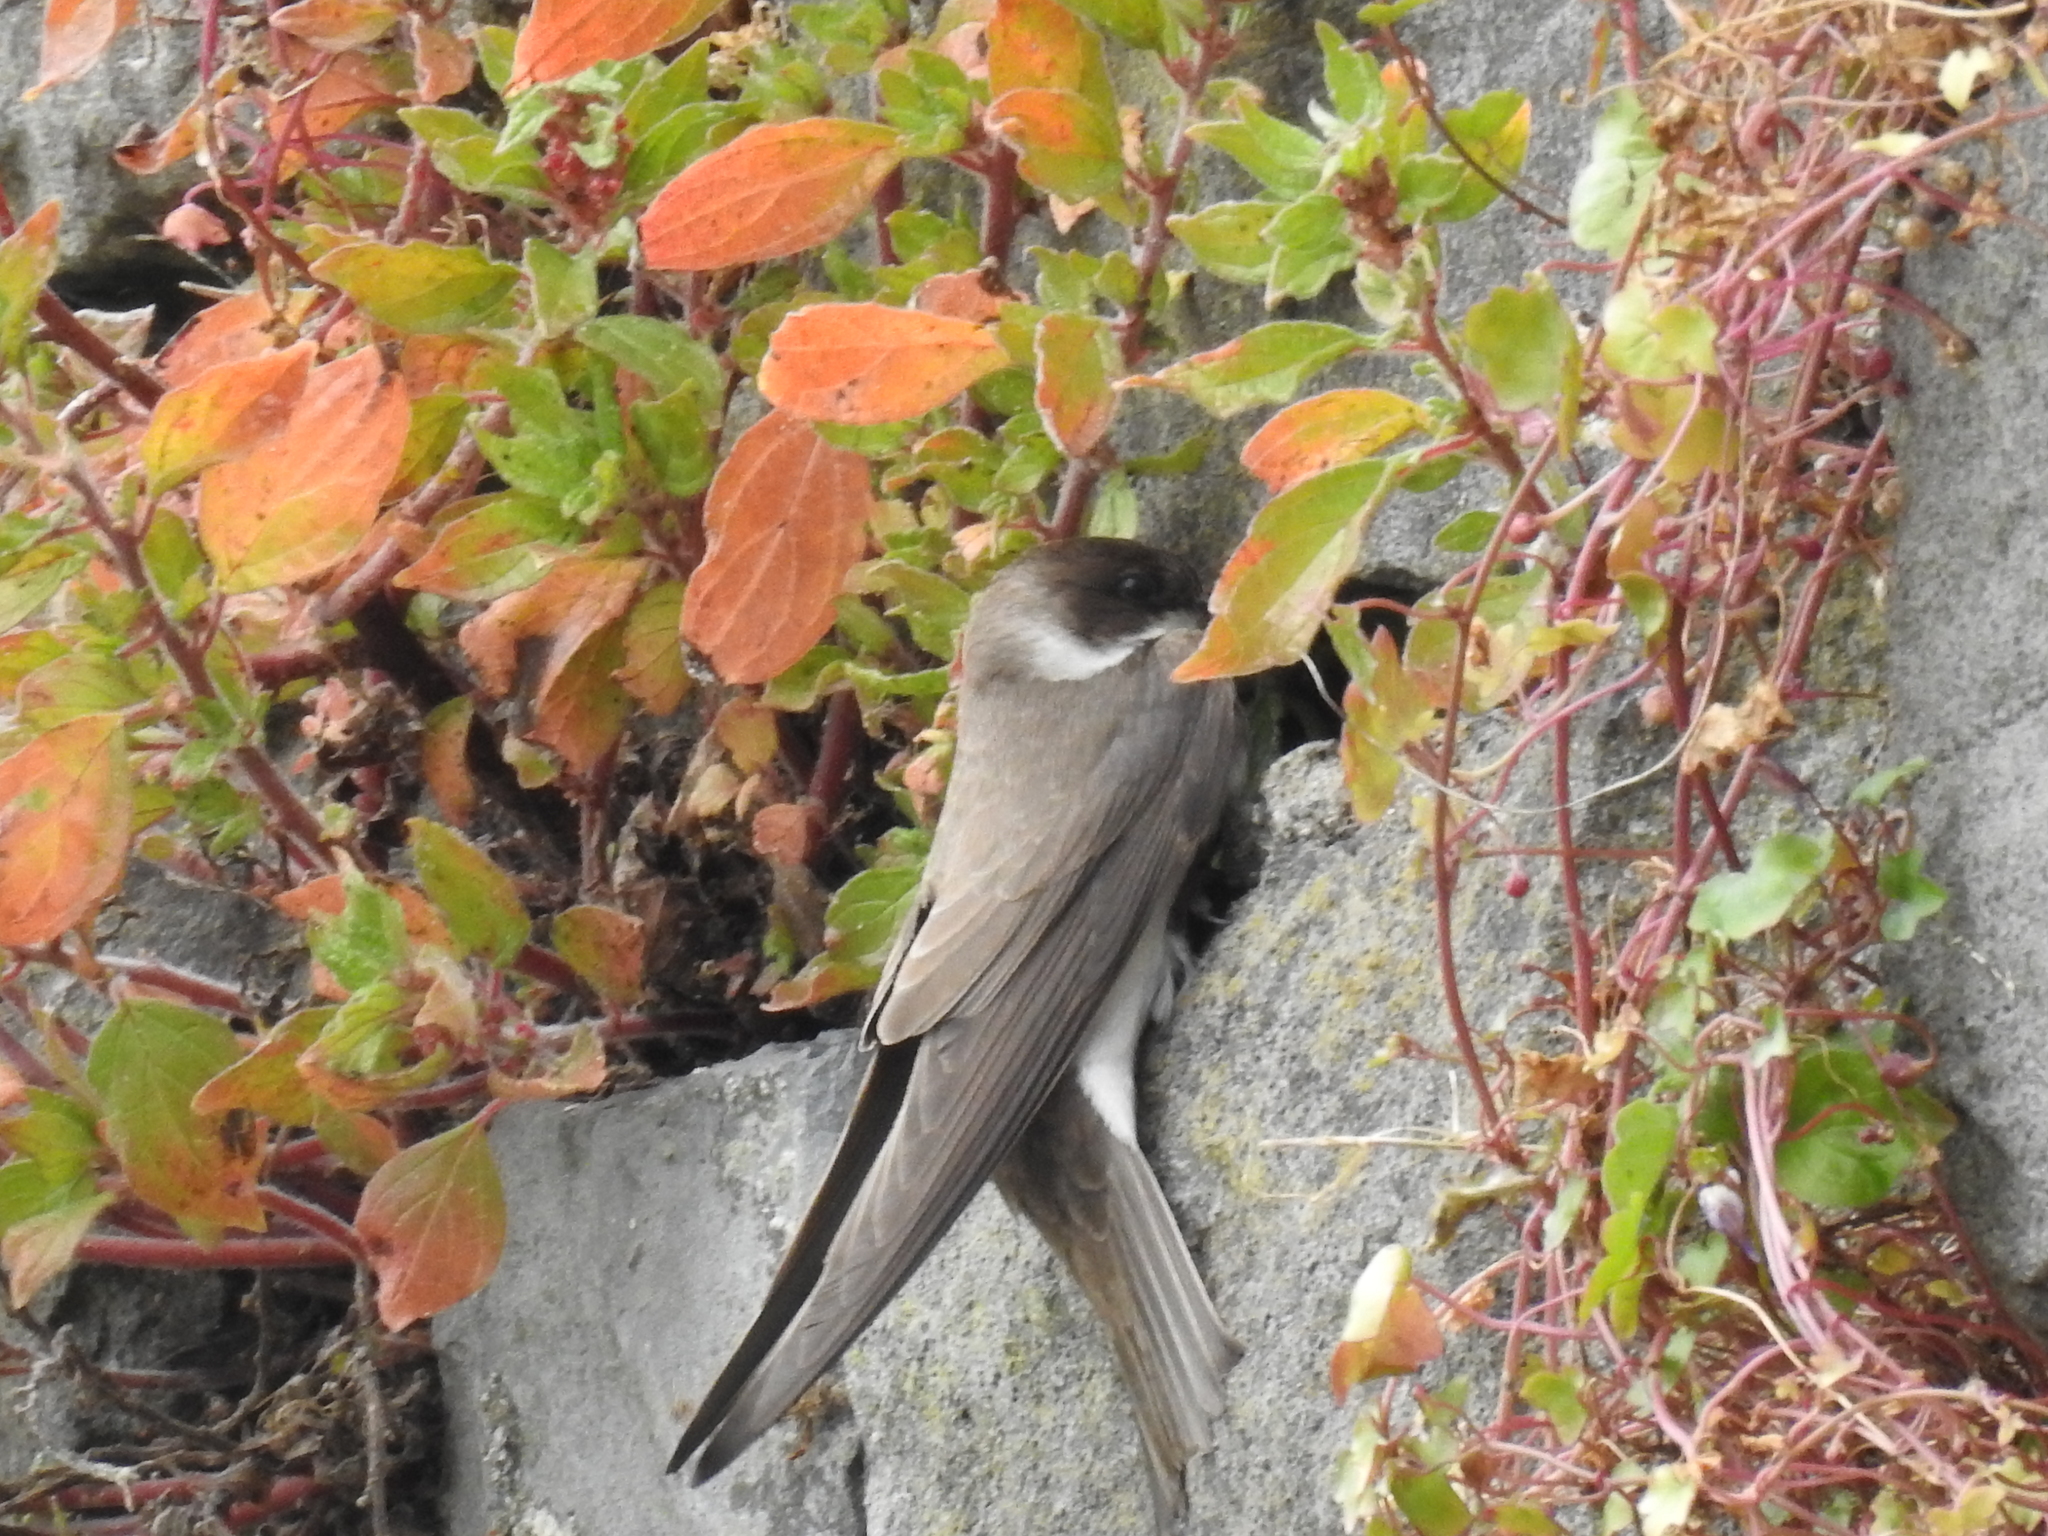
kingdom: Animalia
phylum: Chordata
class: Aves
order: Passeriformes
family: Hirundinidae
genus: Riparia
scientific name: Riparia riparia
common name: Sand martin
